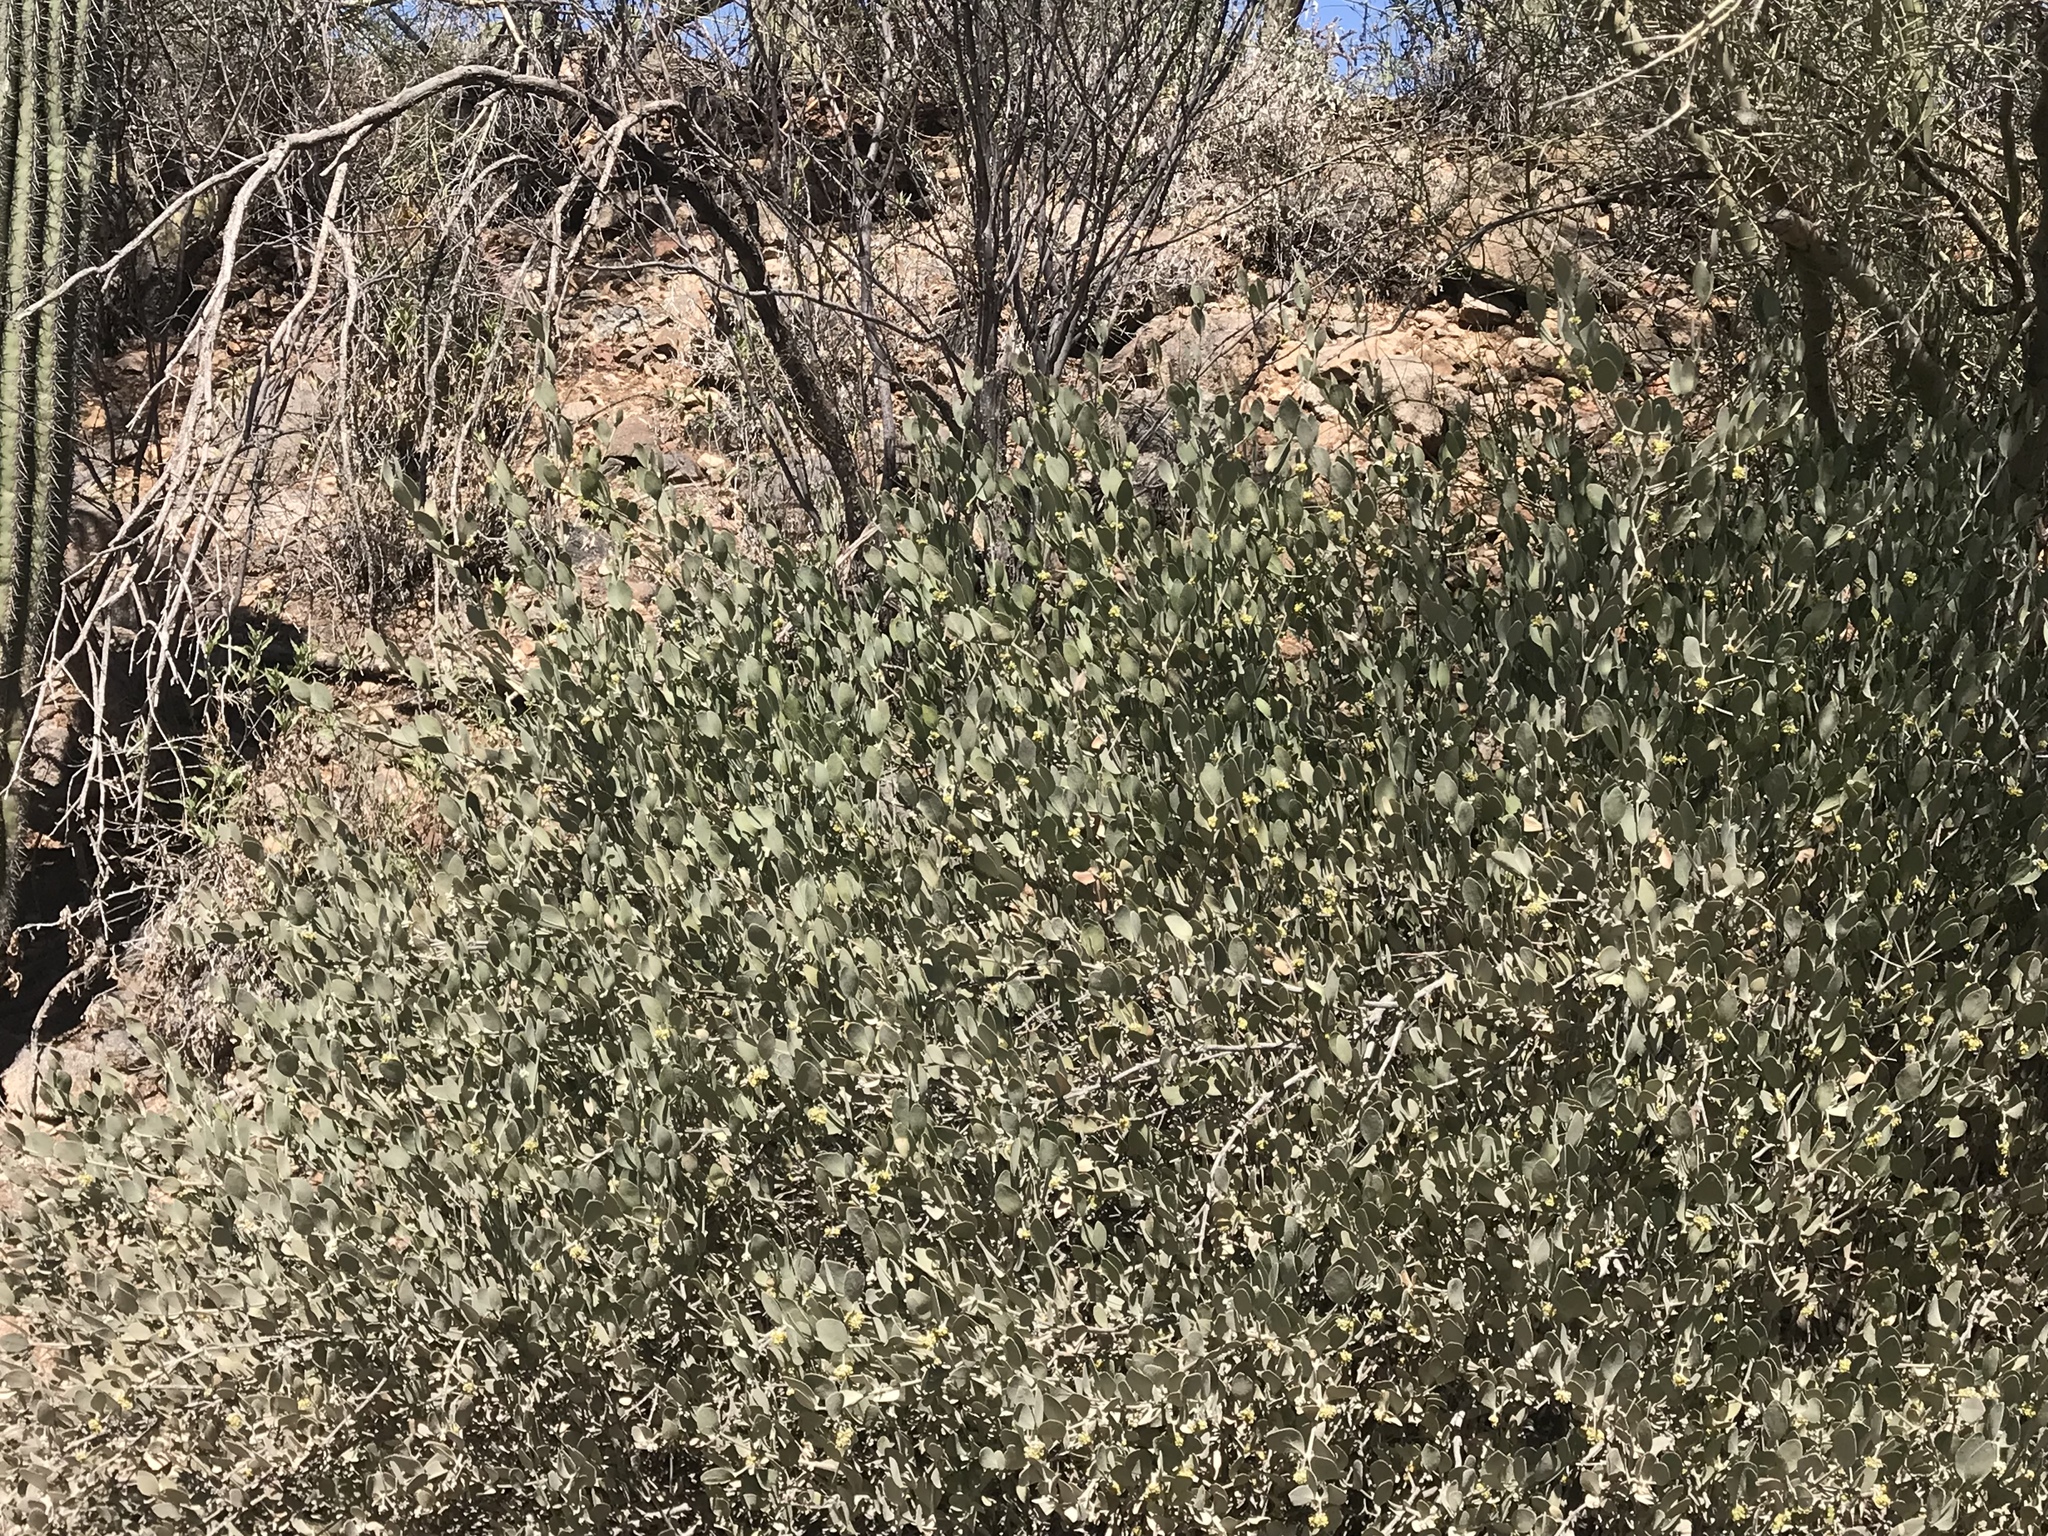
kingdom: Plantae
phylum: Tracheophyta
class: Magnoliopsida
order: Caryophyllales
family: Simmondsiaceae
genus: Simmondsia
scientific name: Simmondsia chinensis
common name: Jojoba
